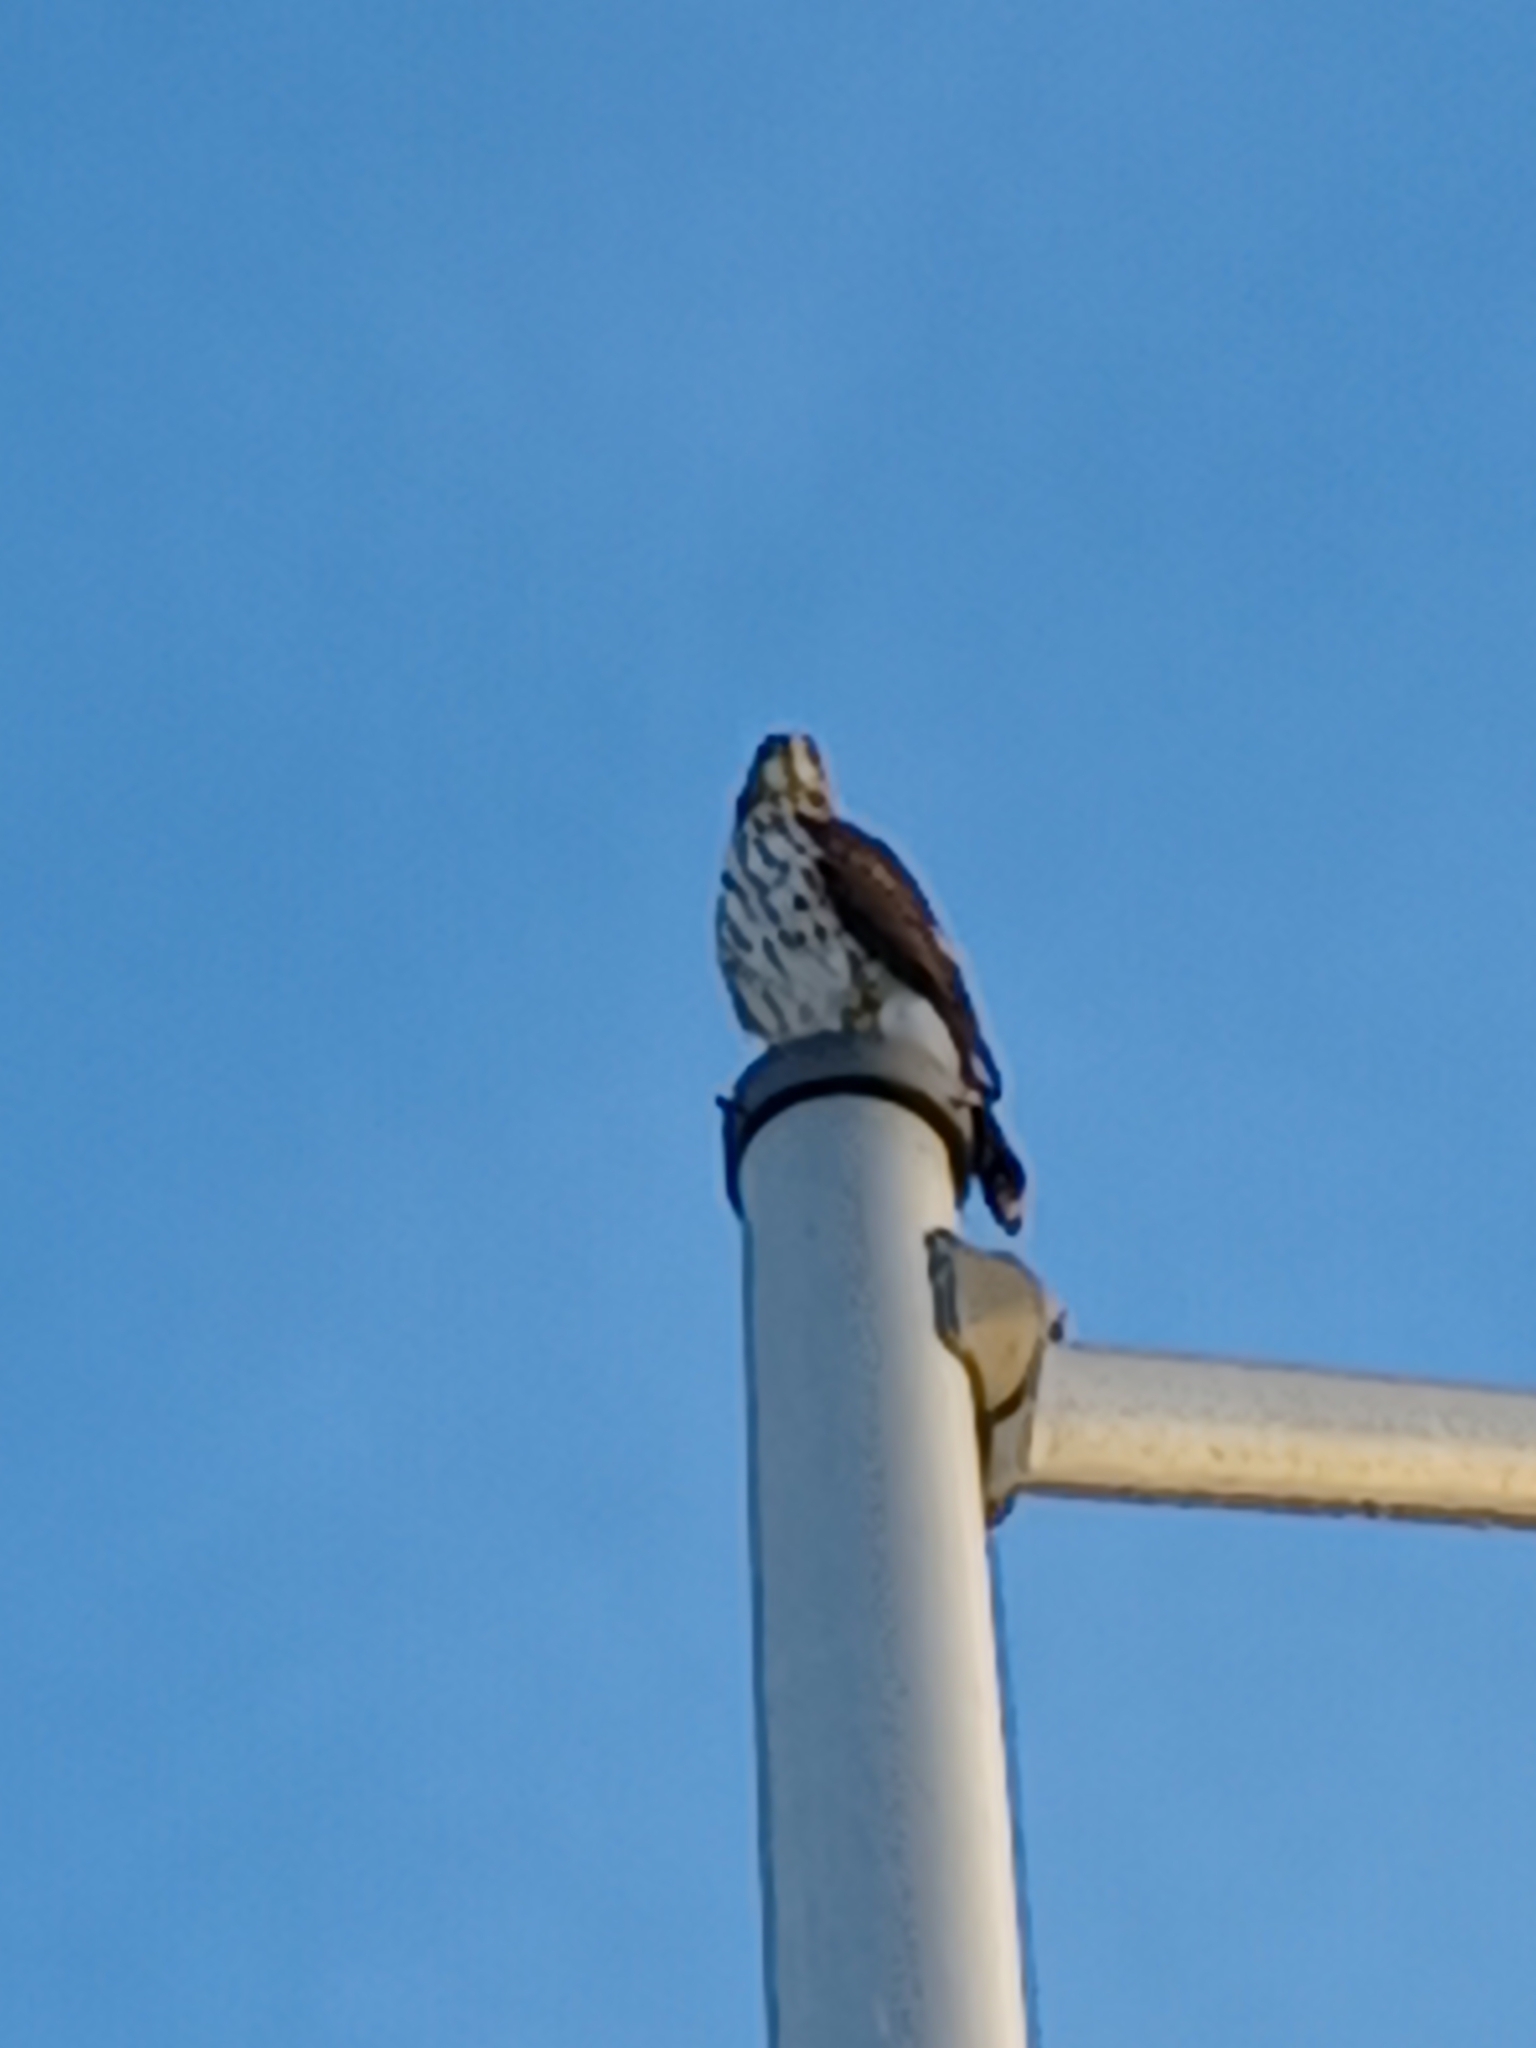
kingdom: Animalia
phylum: Chordata
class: Aves
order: Accipitriformes
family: Accipitridae
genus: Buteo
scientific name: Buteo platypterus
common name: Broad-winged hawk
